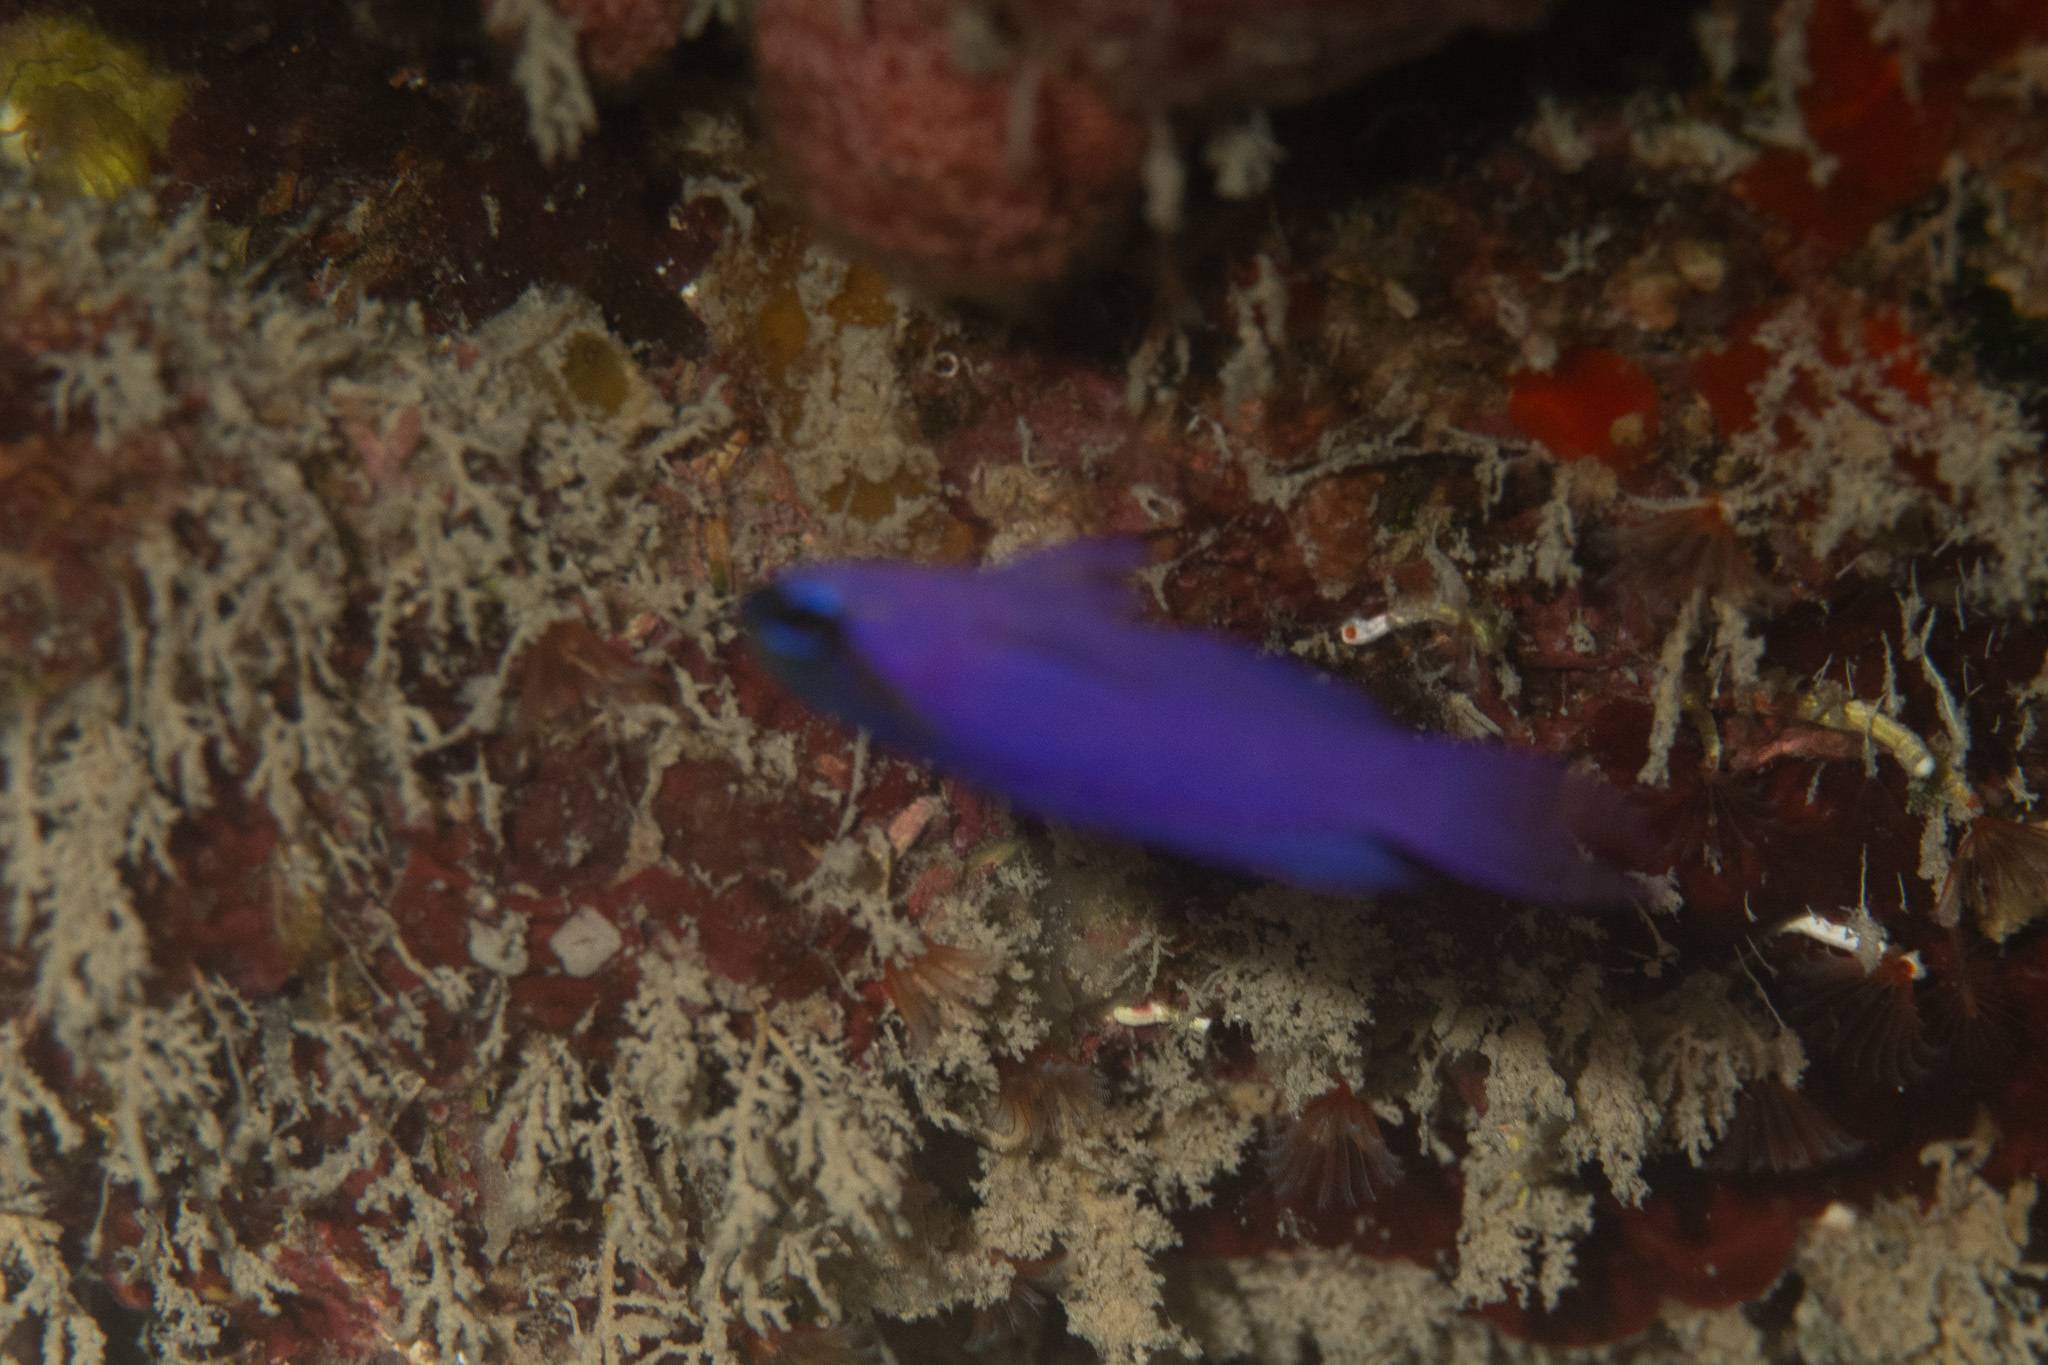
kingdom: Animalia
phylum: Chordata
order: Perciformes
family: Grammatidae
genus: Gramma
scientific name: Gramma melacara
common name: Blackcap basslet
